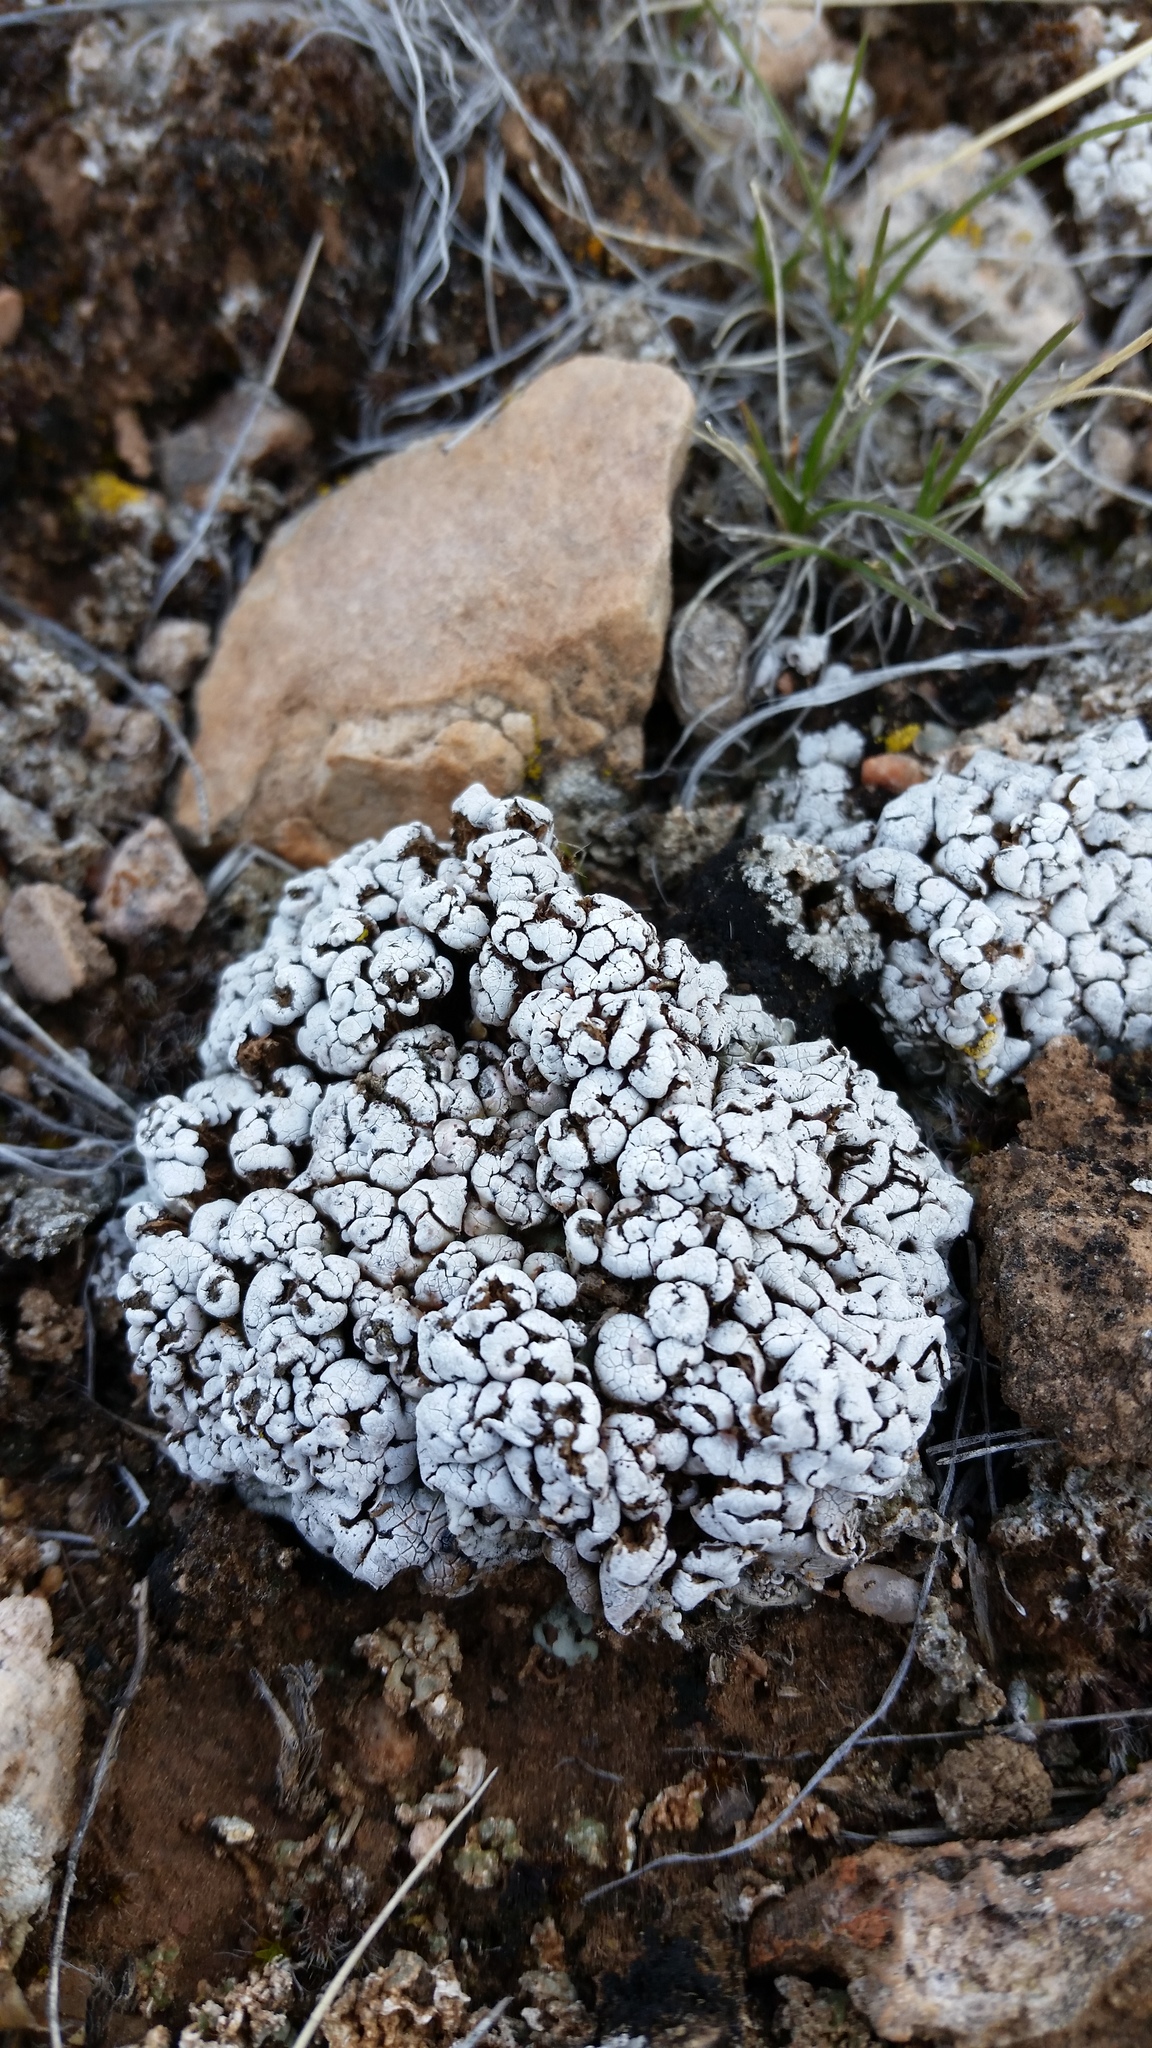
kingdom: Fungi
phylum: Ascomycota
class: Lecanoromycetes
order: Lecanorales
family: Psoraceae
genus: Psora
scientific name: Psora cerebriformis
